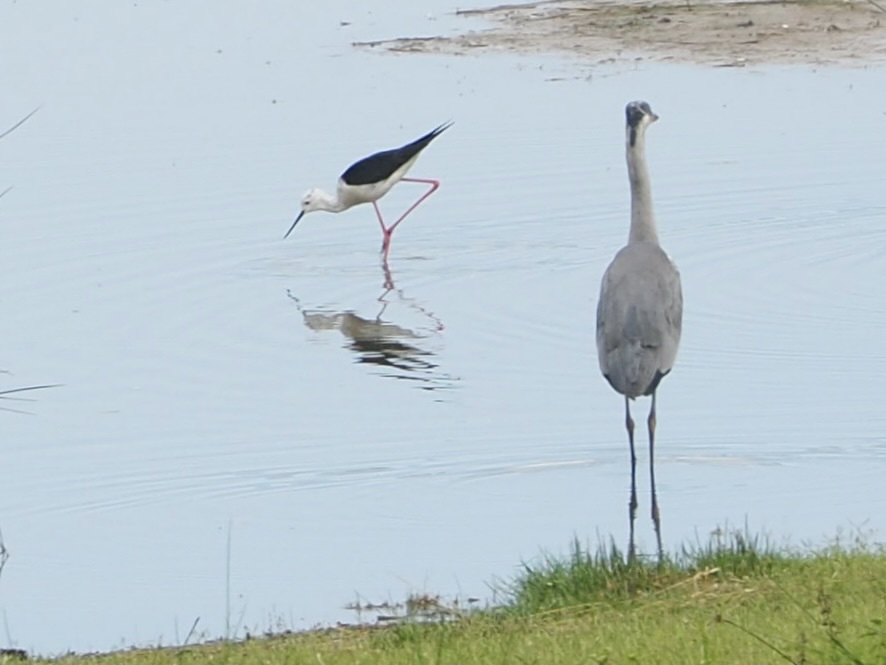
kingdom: Animalia
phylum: Chordata
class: Aves
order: Pelecaniformes
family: Ardeidae
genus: Ardea
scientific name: Ardea cinerea
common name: Grey heron
